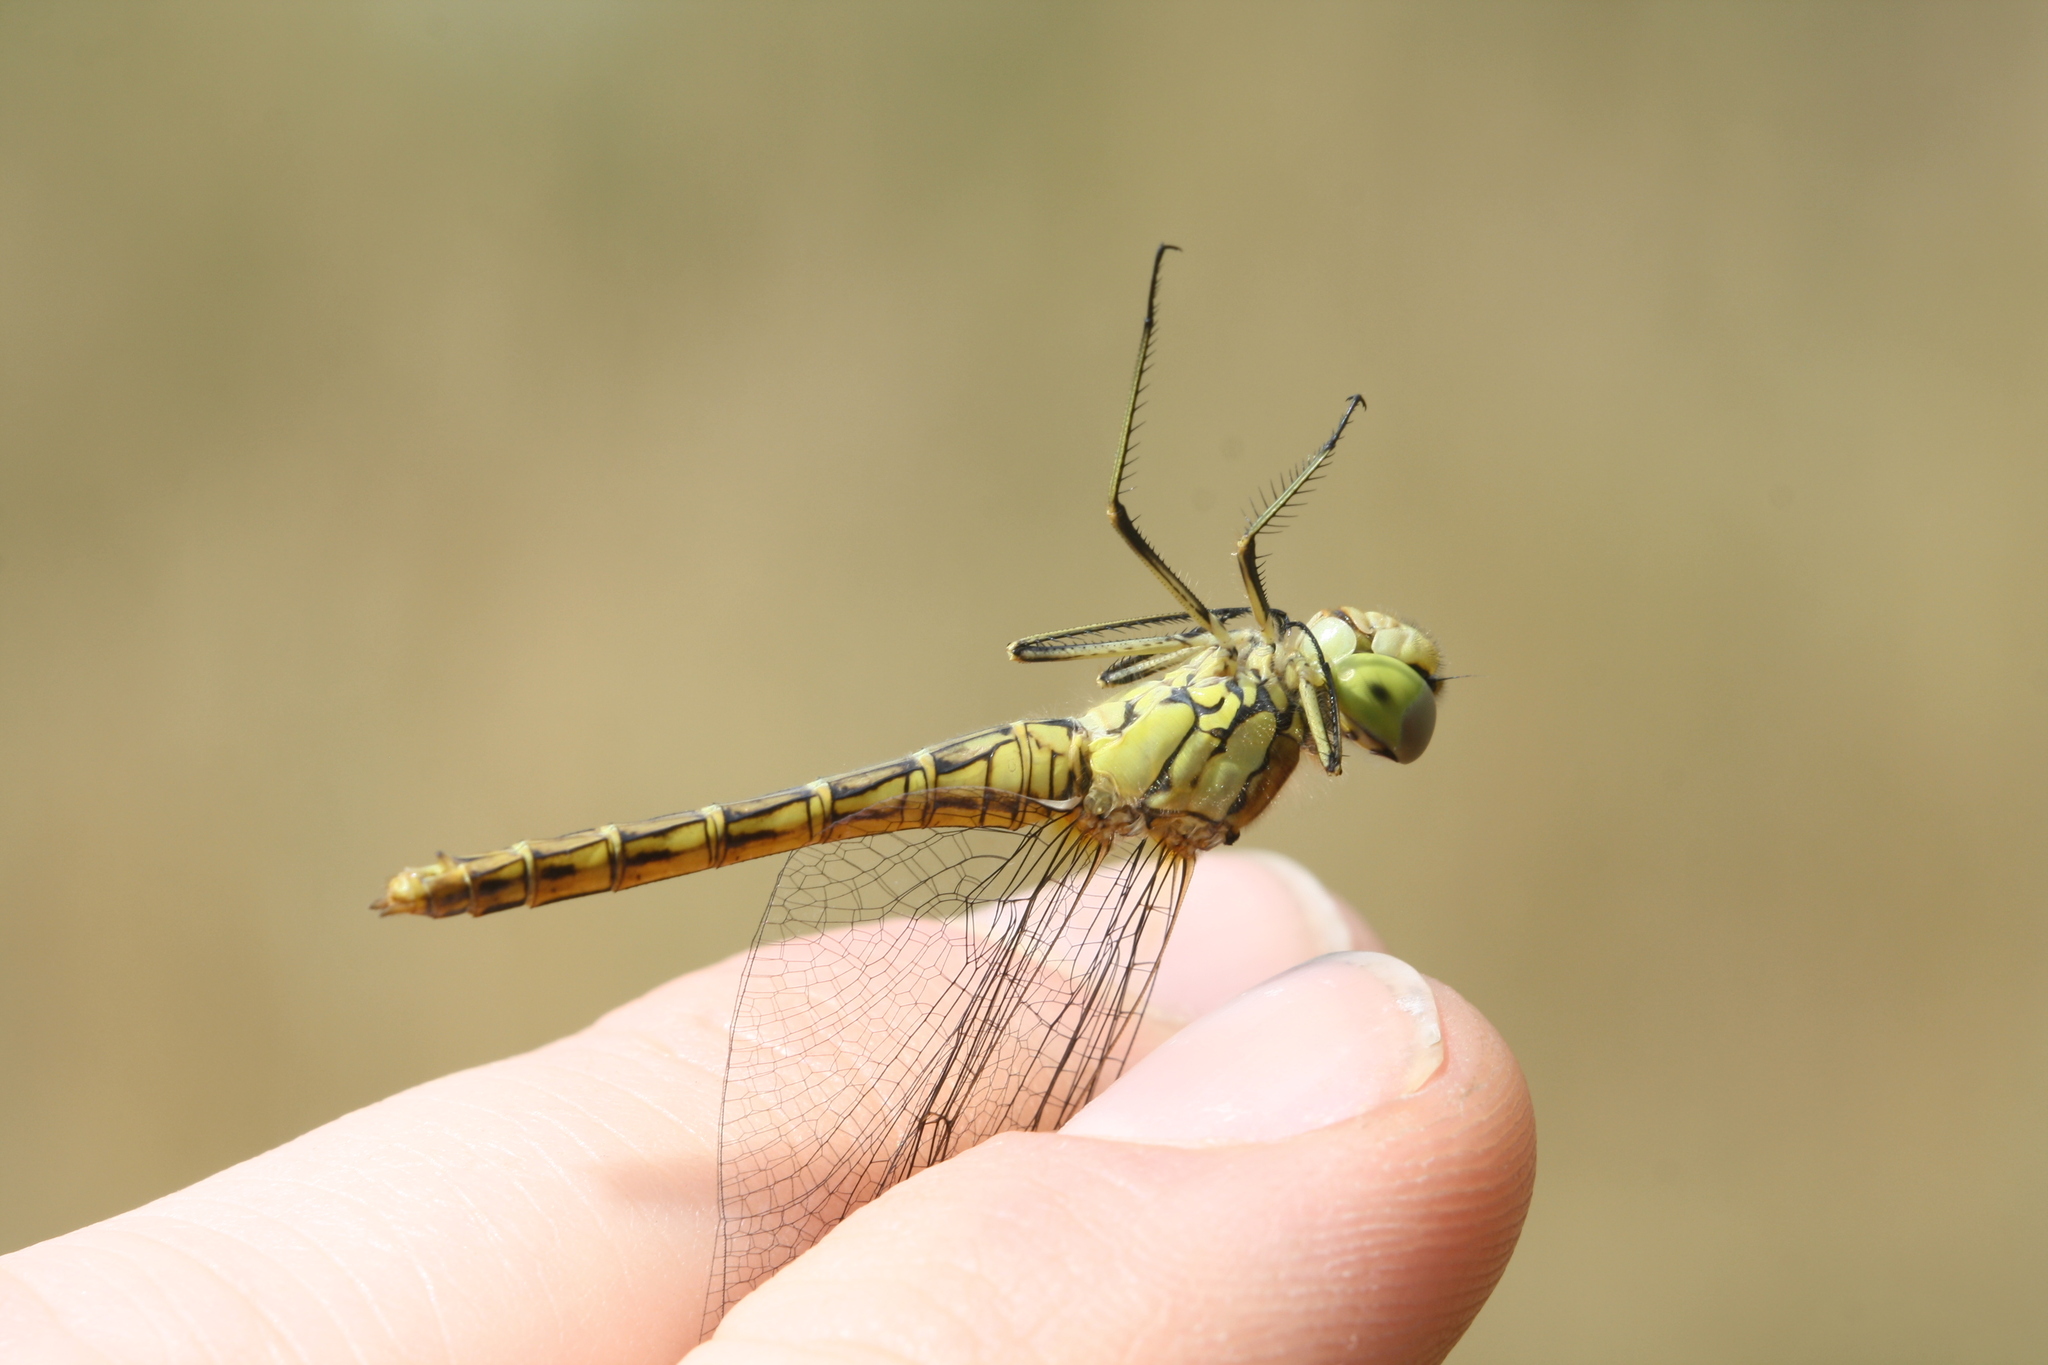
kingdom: Animalia
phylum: Arthropoda
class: Insecta
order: Odonata
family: Libellulidae
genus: Sympetrum
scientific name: Sympetrum vulgatum
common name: Vagrant darter
